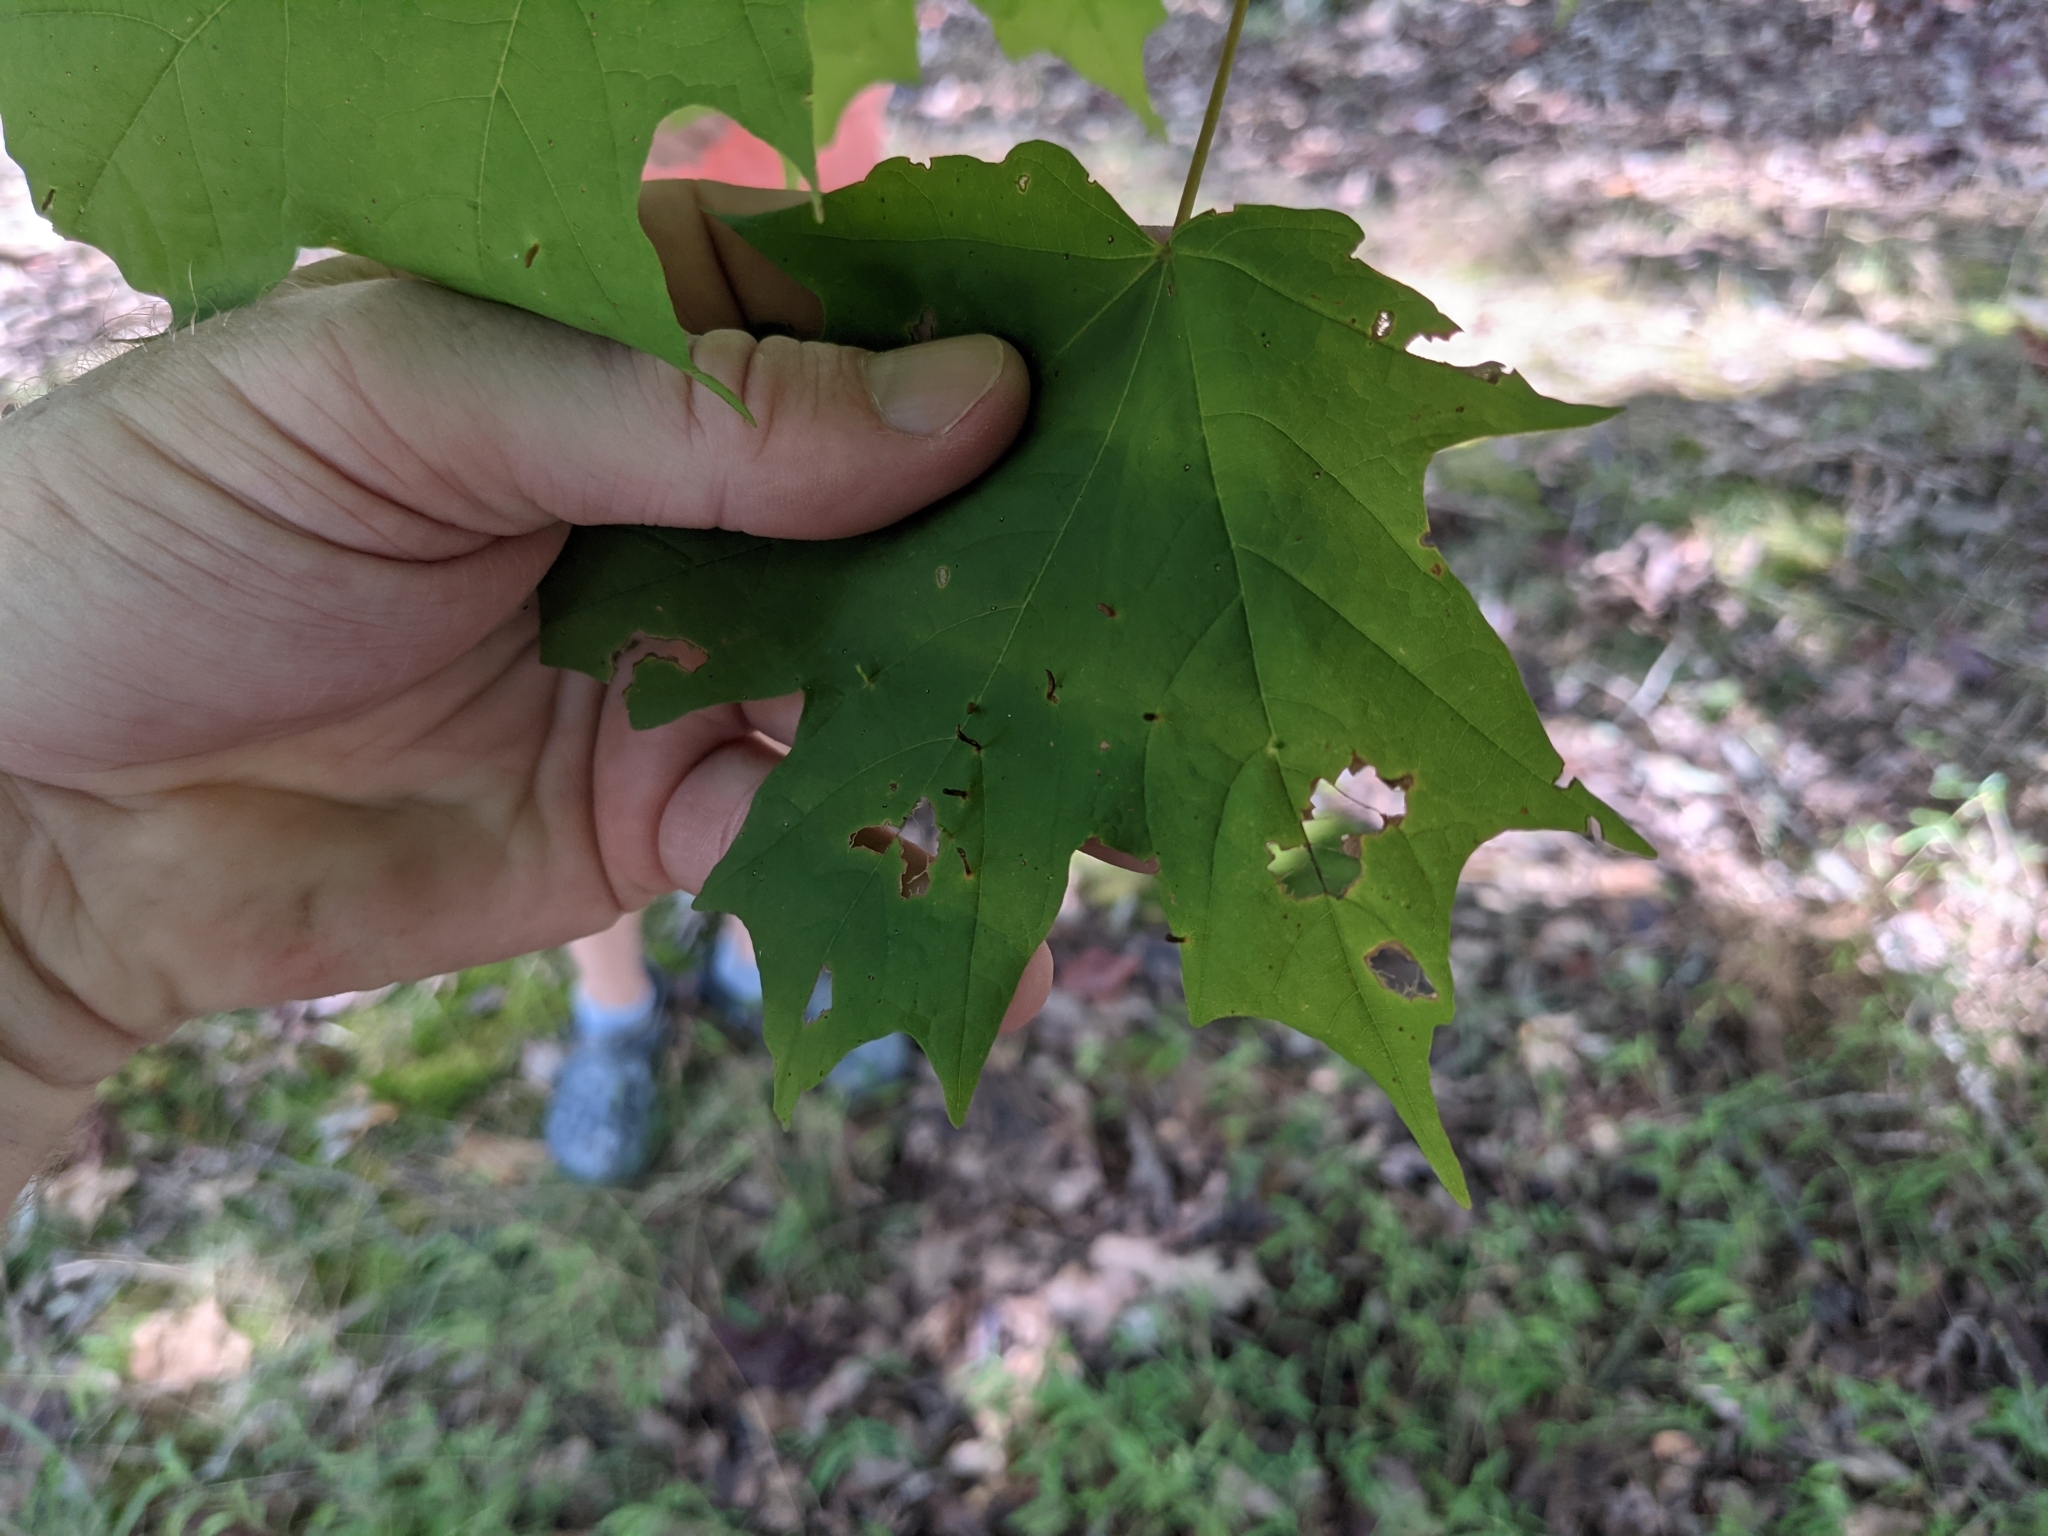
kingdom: Animalia
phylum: Arthropoda
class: Arachnida
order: Trombidiformes
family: Eriophyidae
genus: Vasates
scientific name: Vasates aceriscrumena
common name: Maple spindle gall mite
